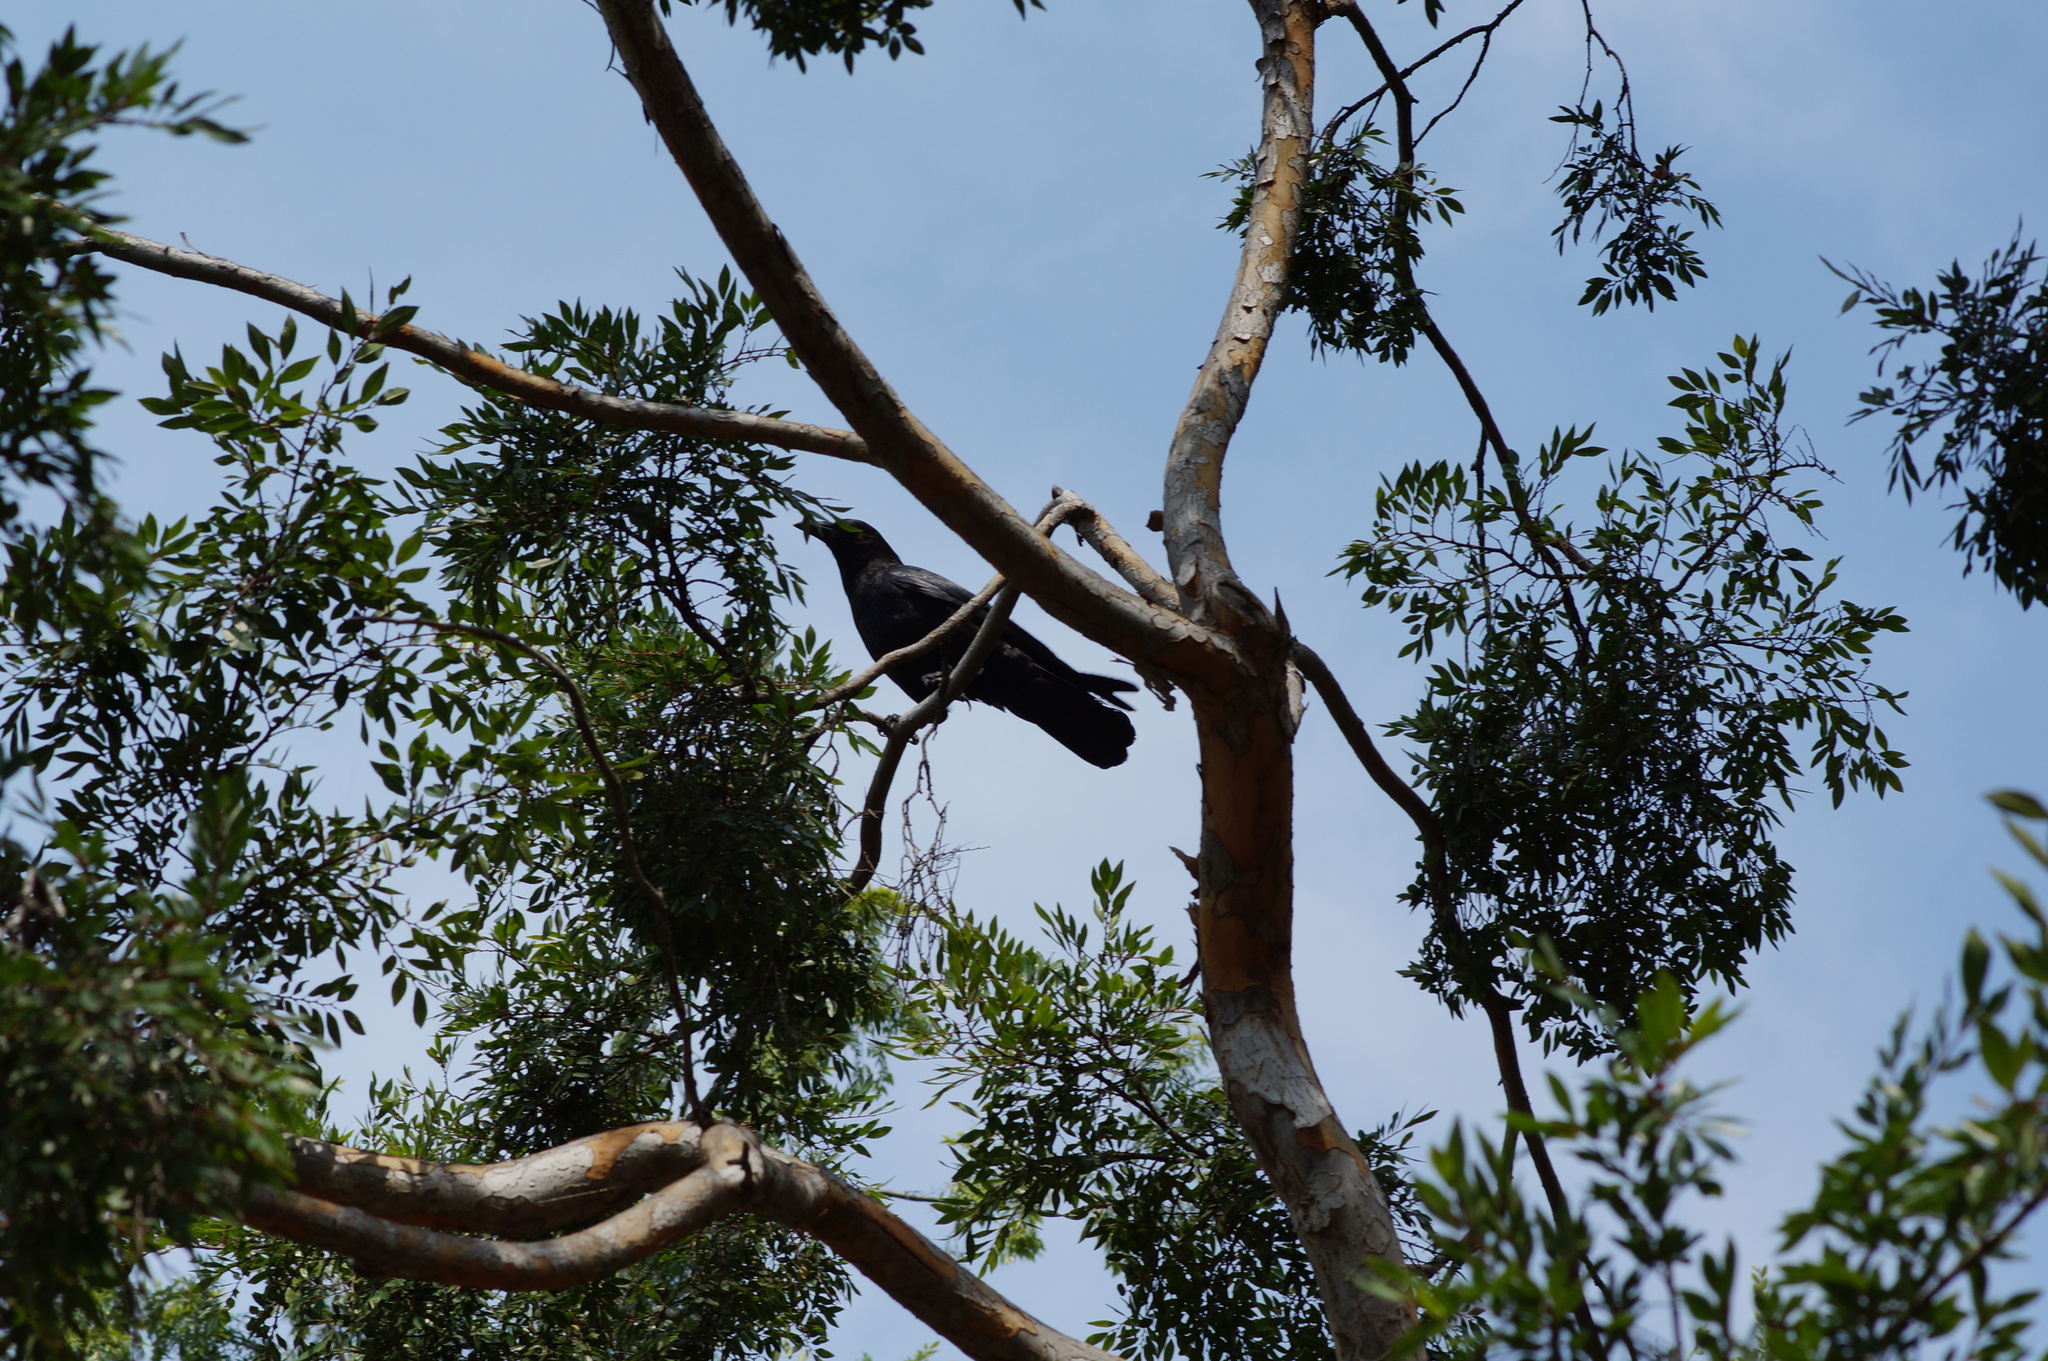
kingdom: Animalia
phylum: Chordata
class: Aves
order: Passeriformes
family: Corvidae
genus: Corvus
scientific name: Corvus brachyrhynchos
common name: American crow
